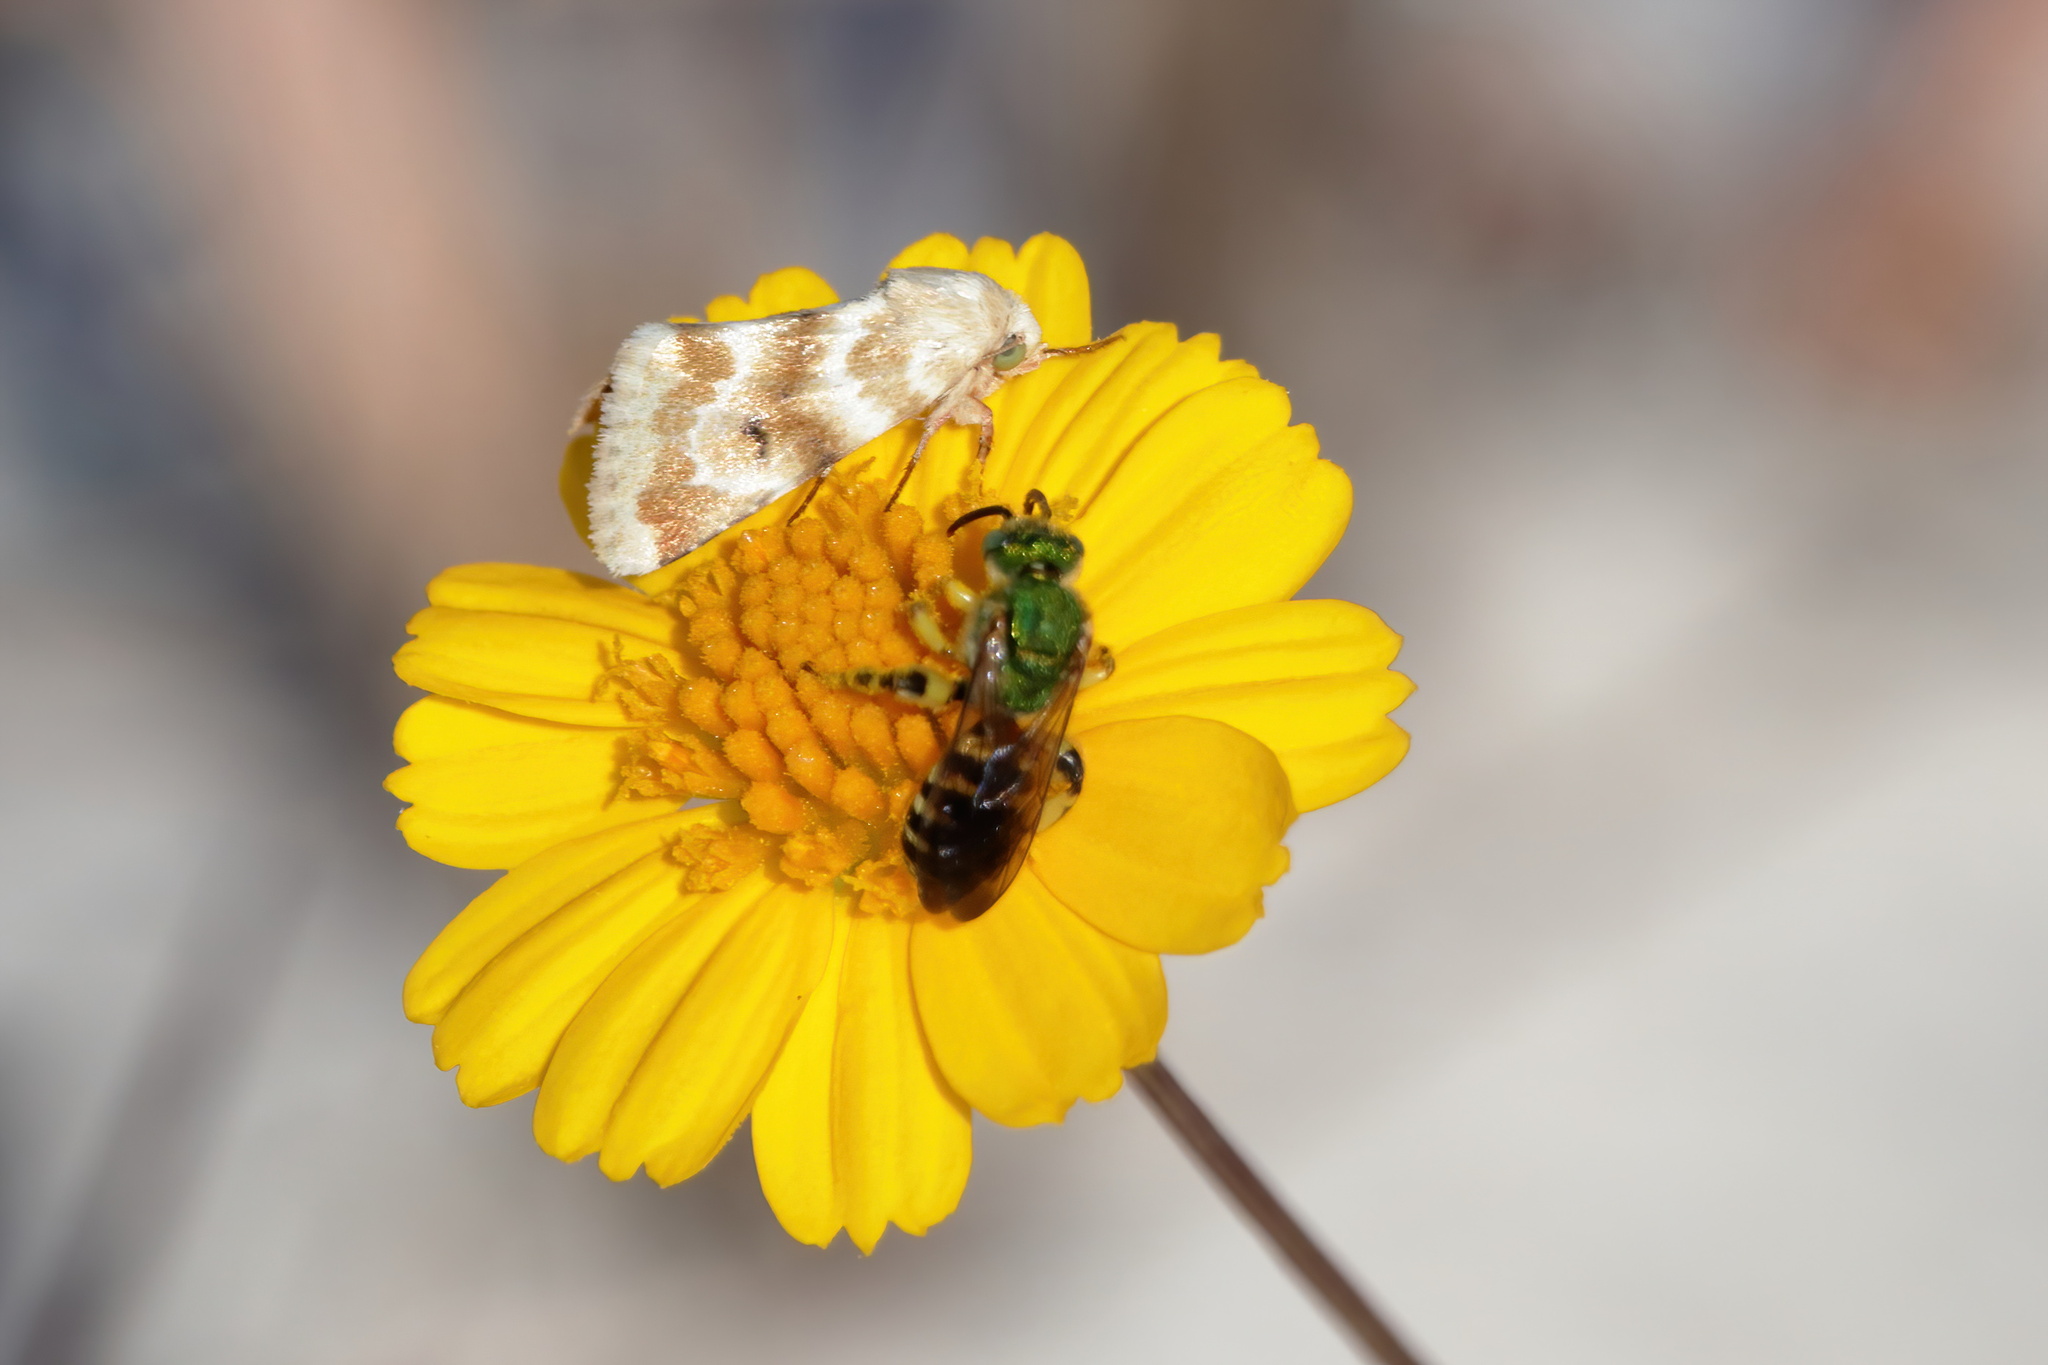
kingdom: Animalia
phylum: Arthropoda
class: Insecta
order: Hymenoptera
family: Halictidae
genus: Agapostemon
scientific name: Agapostemon splendens
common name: Brown-winged striped sweat bee
